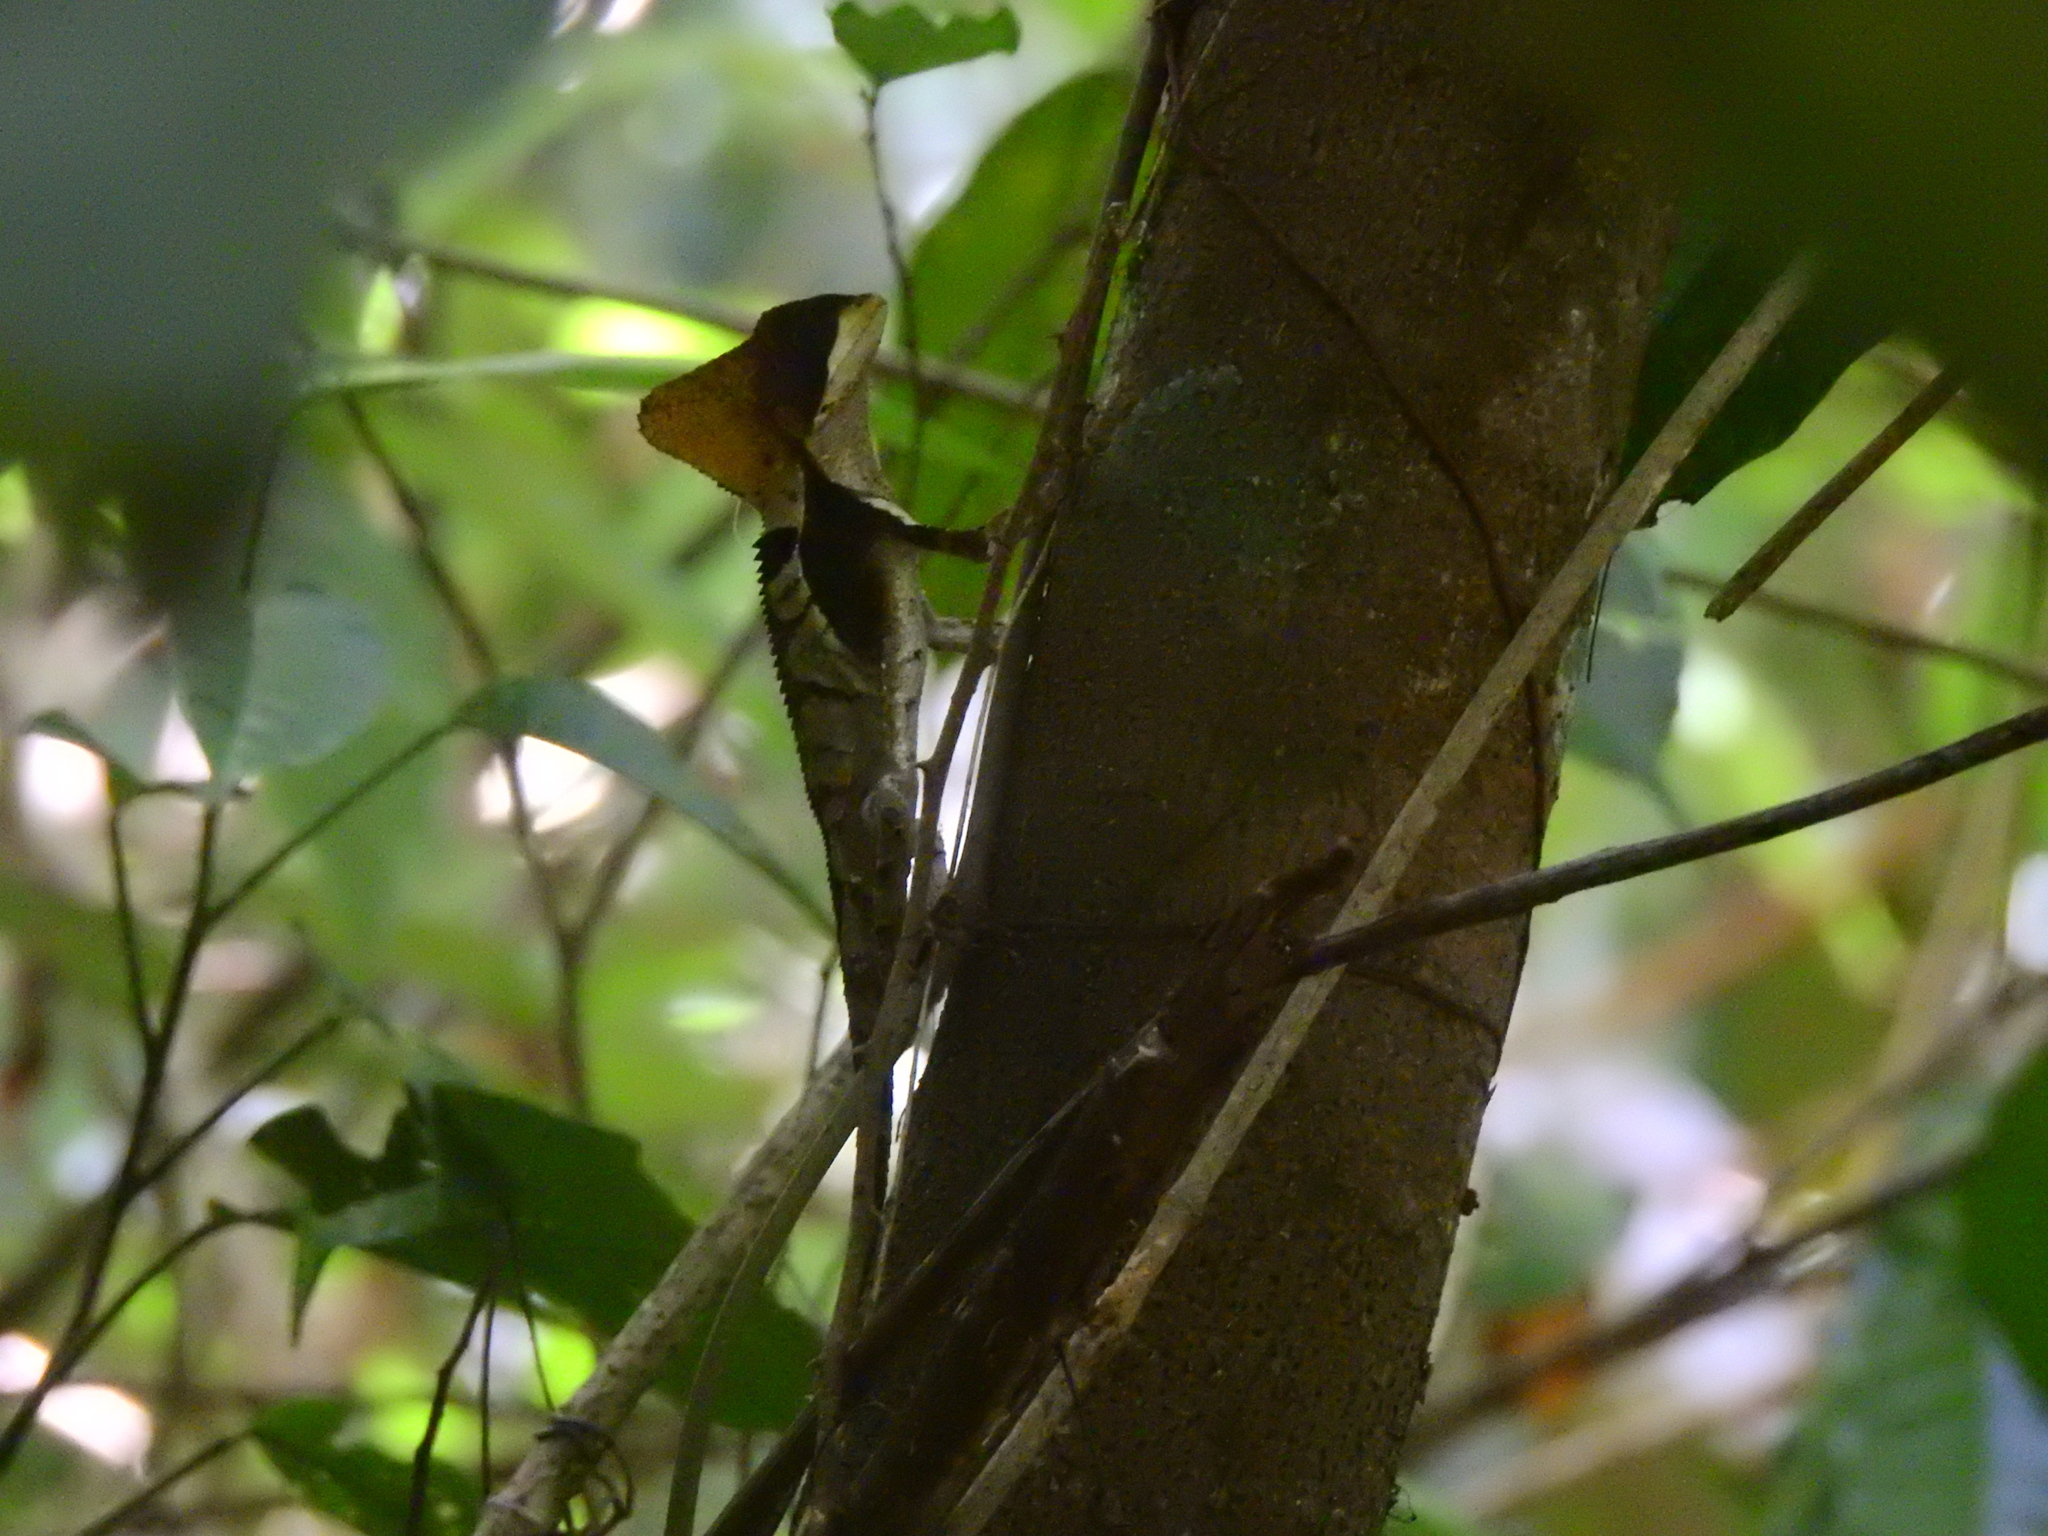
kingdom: Animalia
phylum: Chordata
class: Squamata
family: Corytophanidae
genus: Corytophanes
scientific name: Corytophanes hernandesii
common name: Hernandez’s helmeted basilisk
